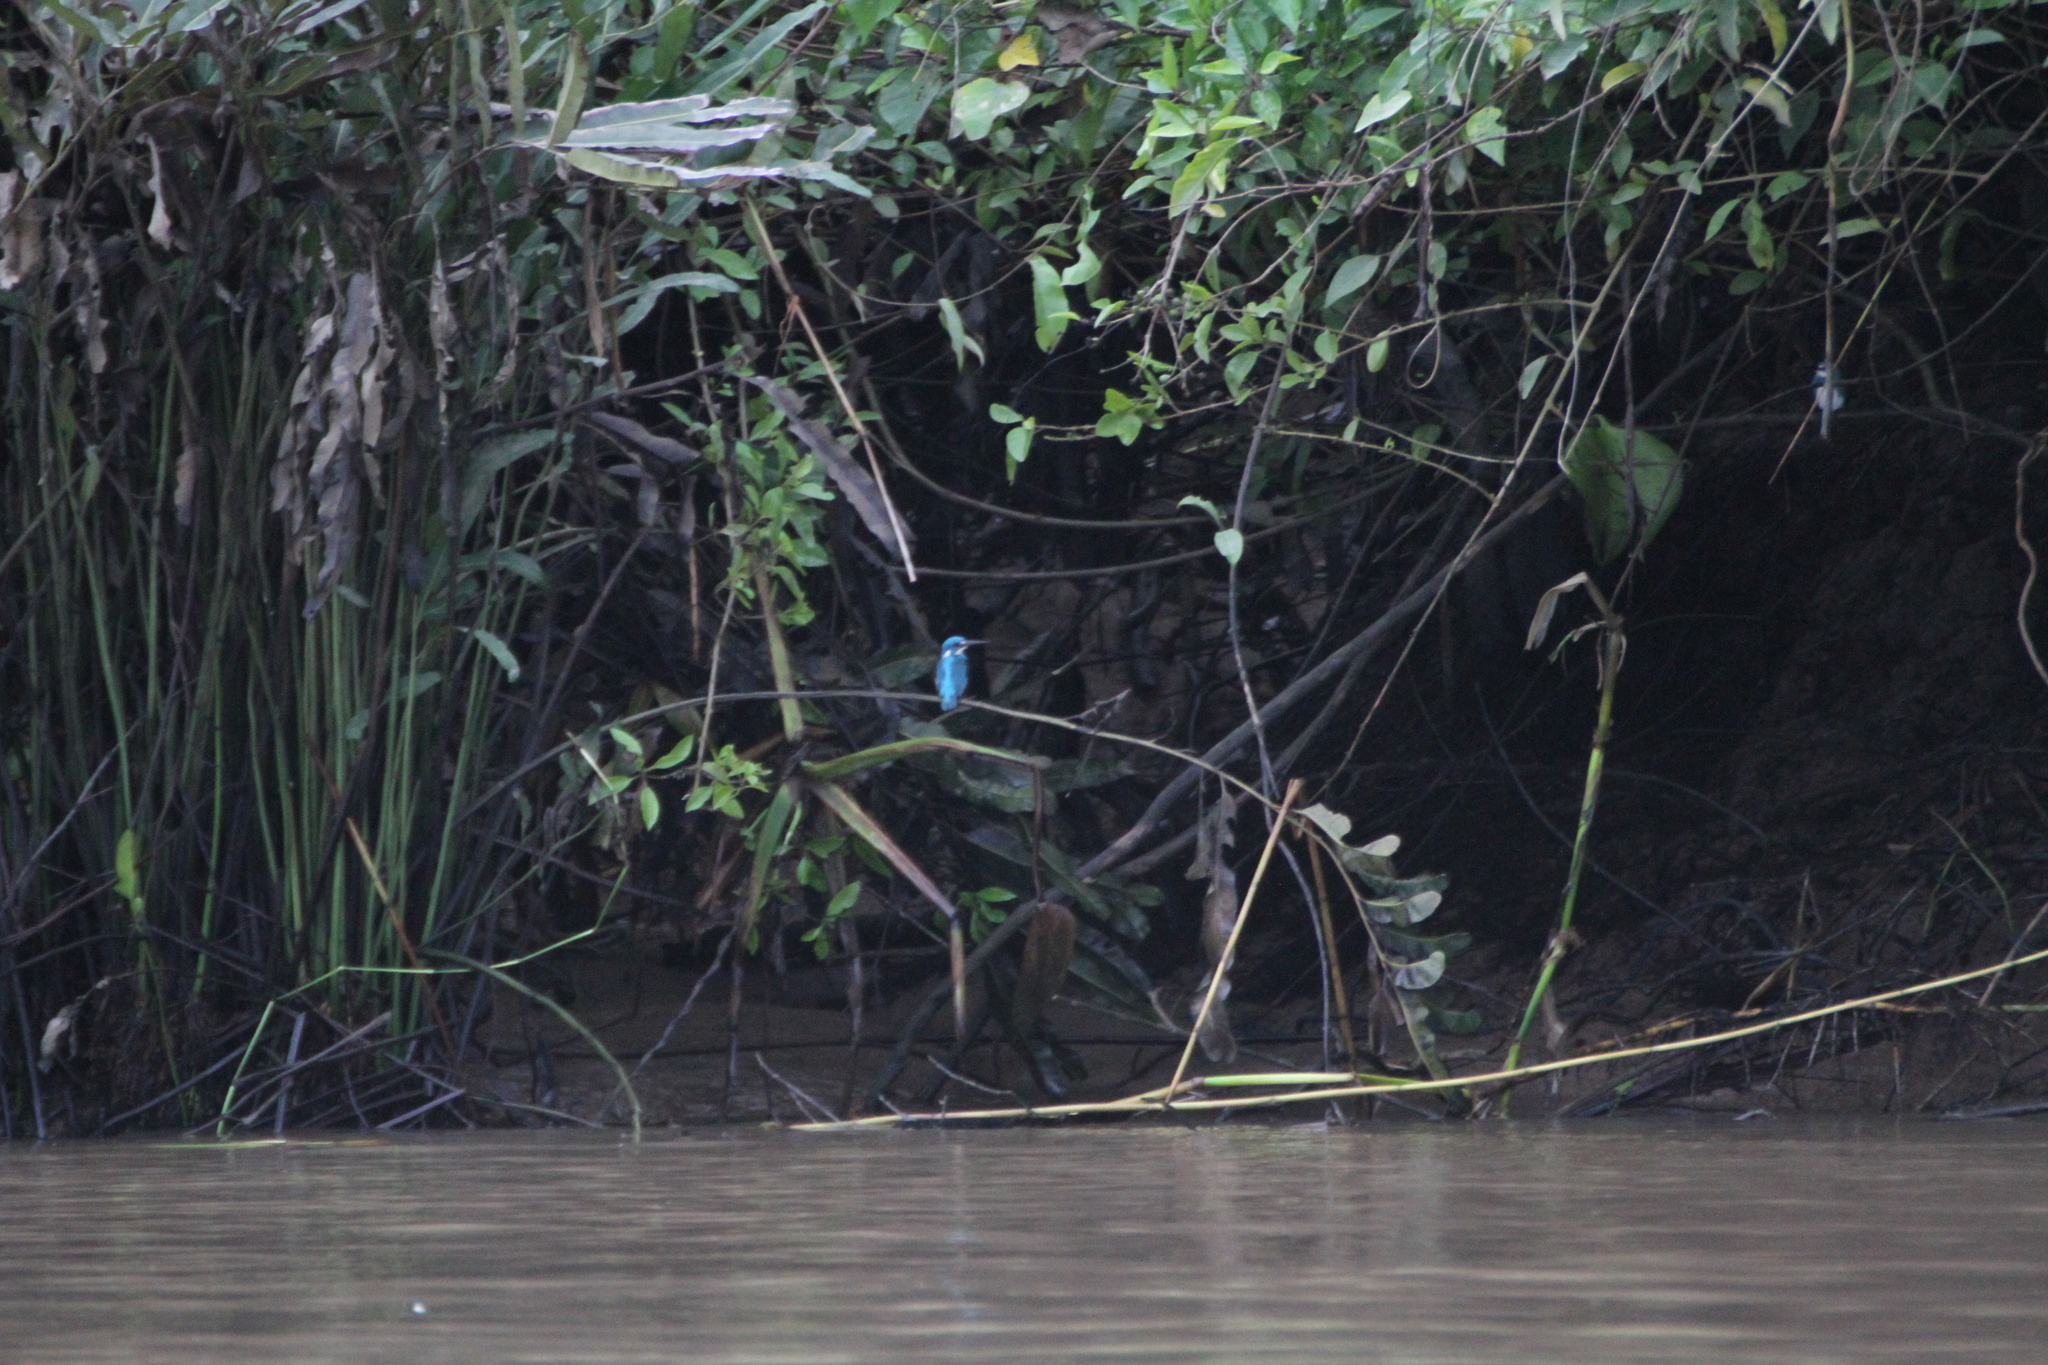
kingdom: Animalia
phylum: Chordata
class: Aves
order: Coraciiformes
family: Alcedinidae
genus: Alcedo
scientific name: Alcedo coerulescens
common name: Cerulean kingfisher
